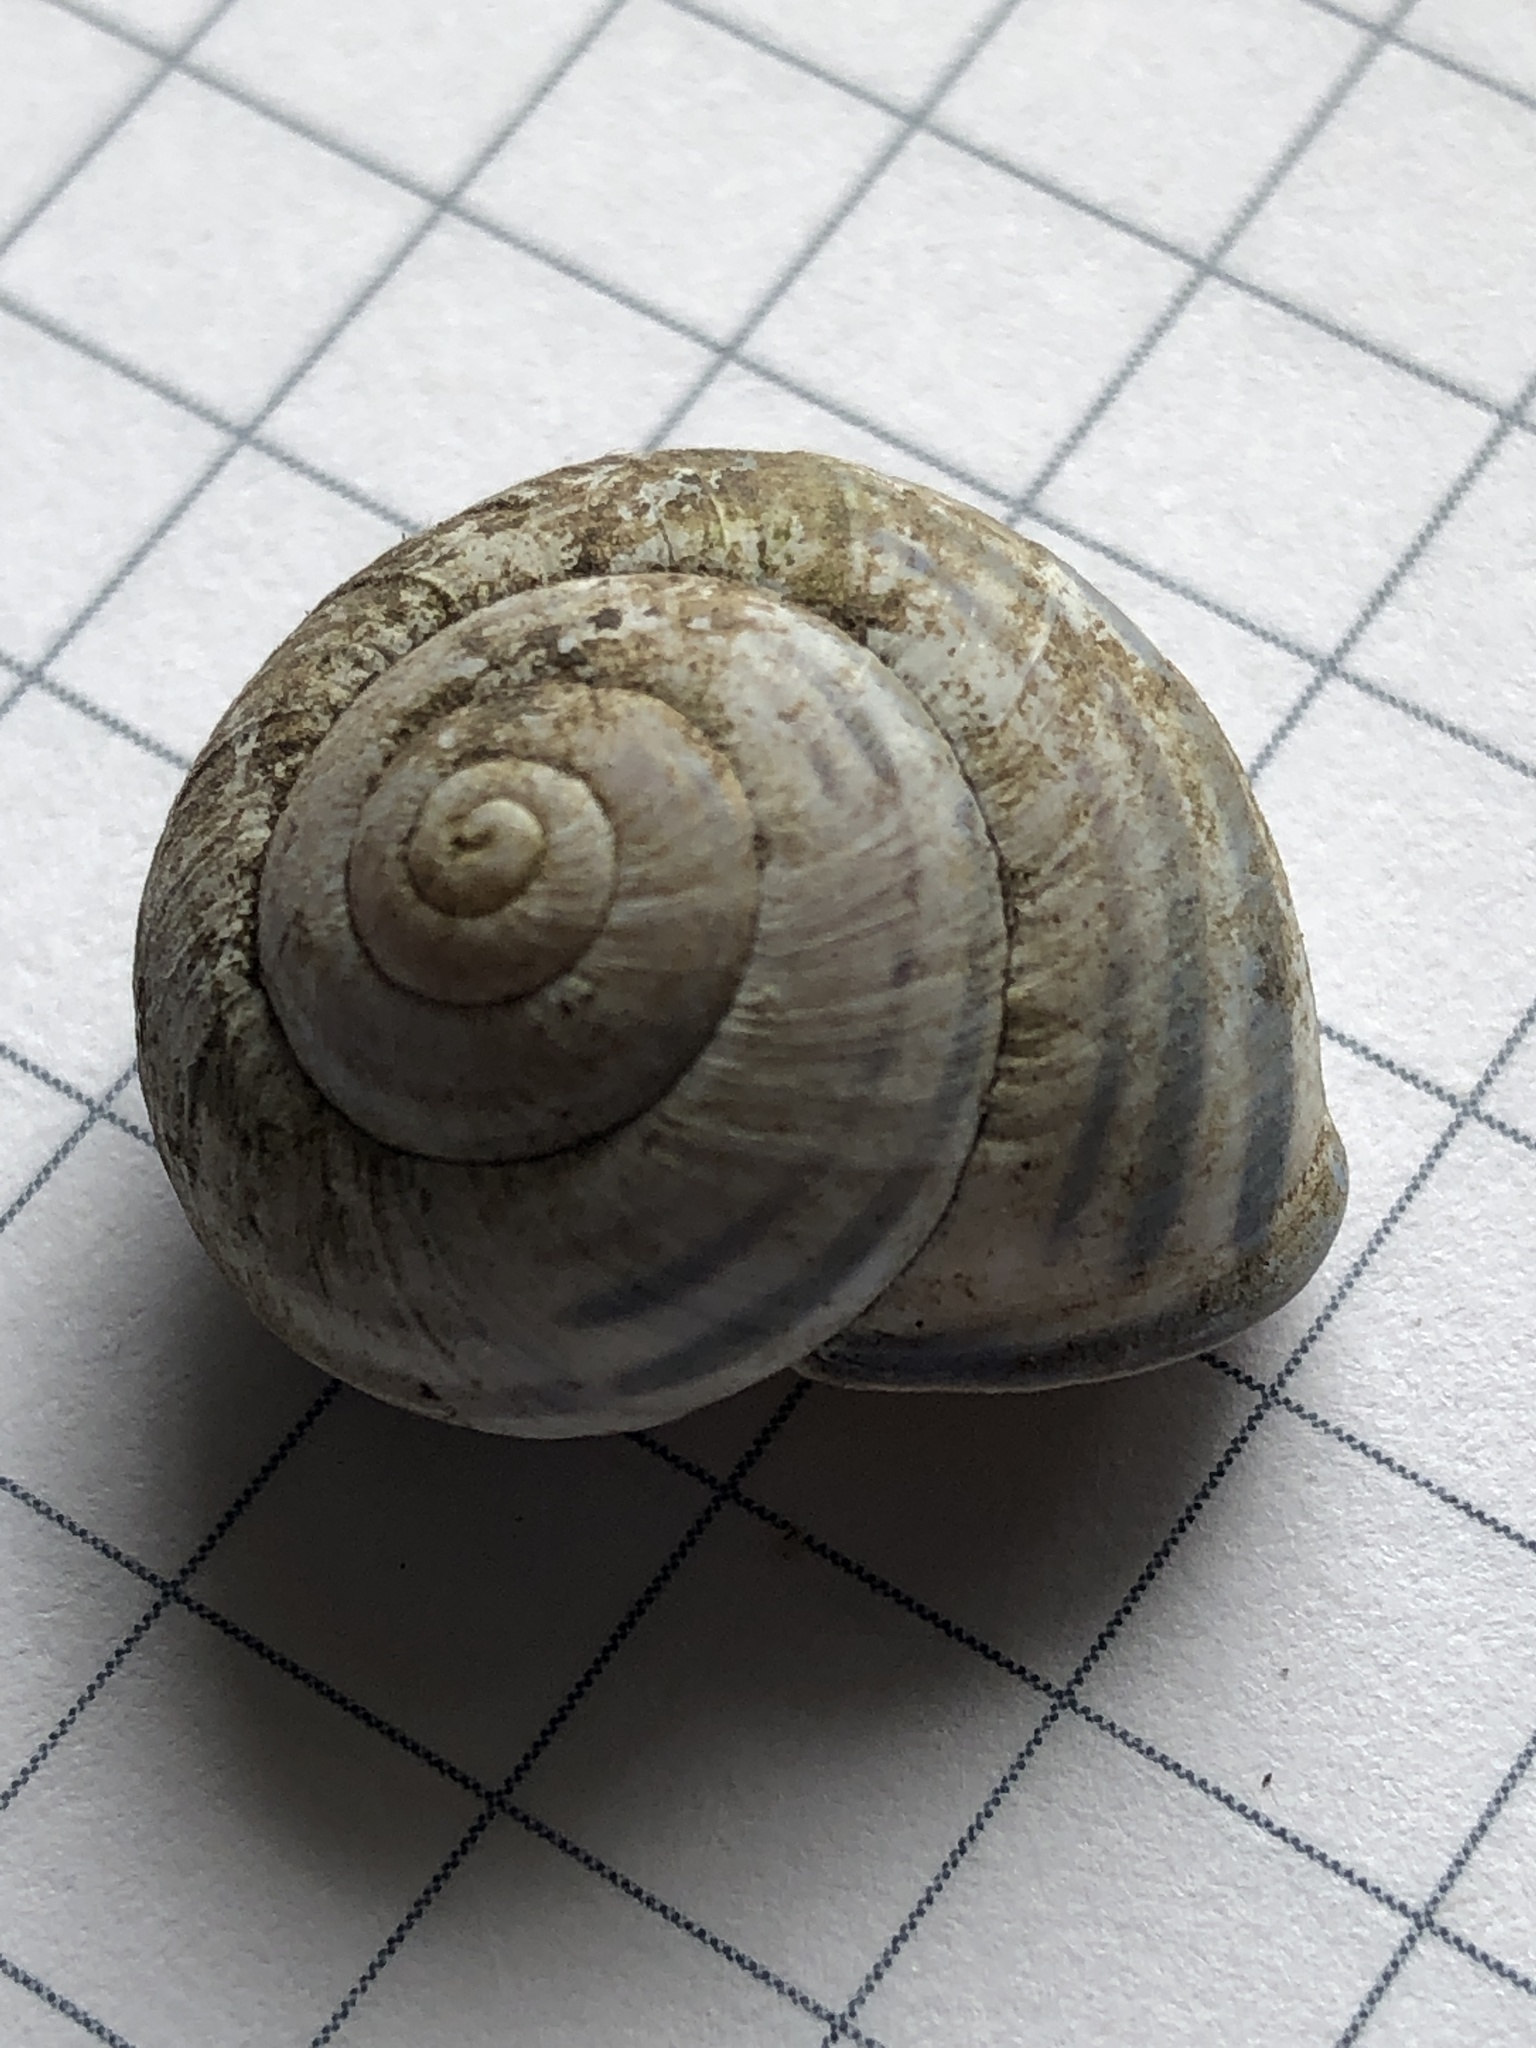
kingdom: Animalia
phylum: Mollusca
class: Gastropoda
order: Stylommatophora
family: Helicidae
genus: Cepaea
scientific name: Cepaea nemoralis
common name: Grovesnail
